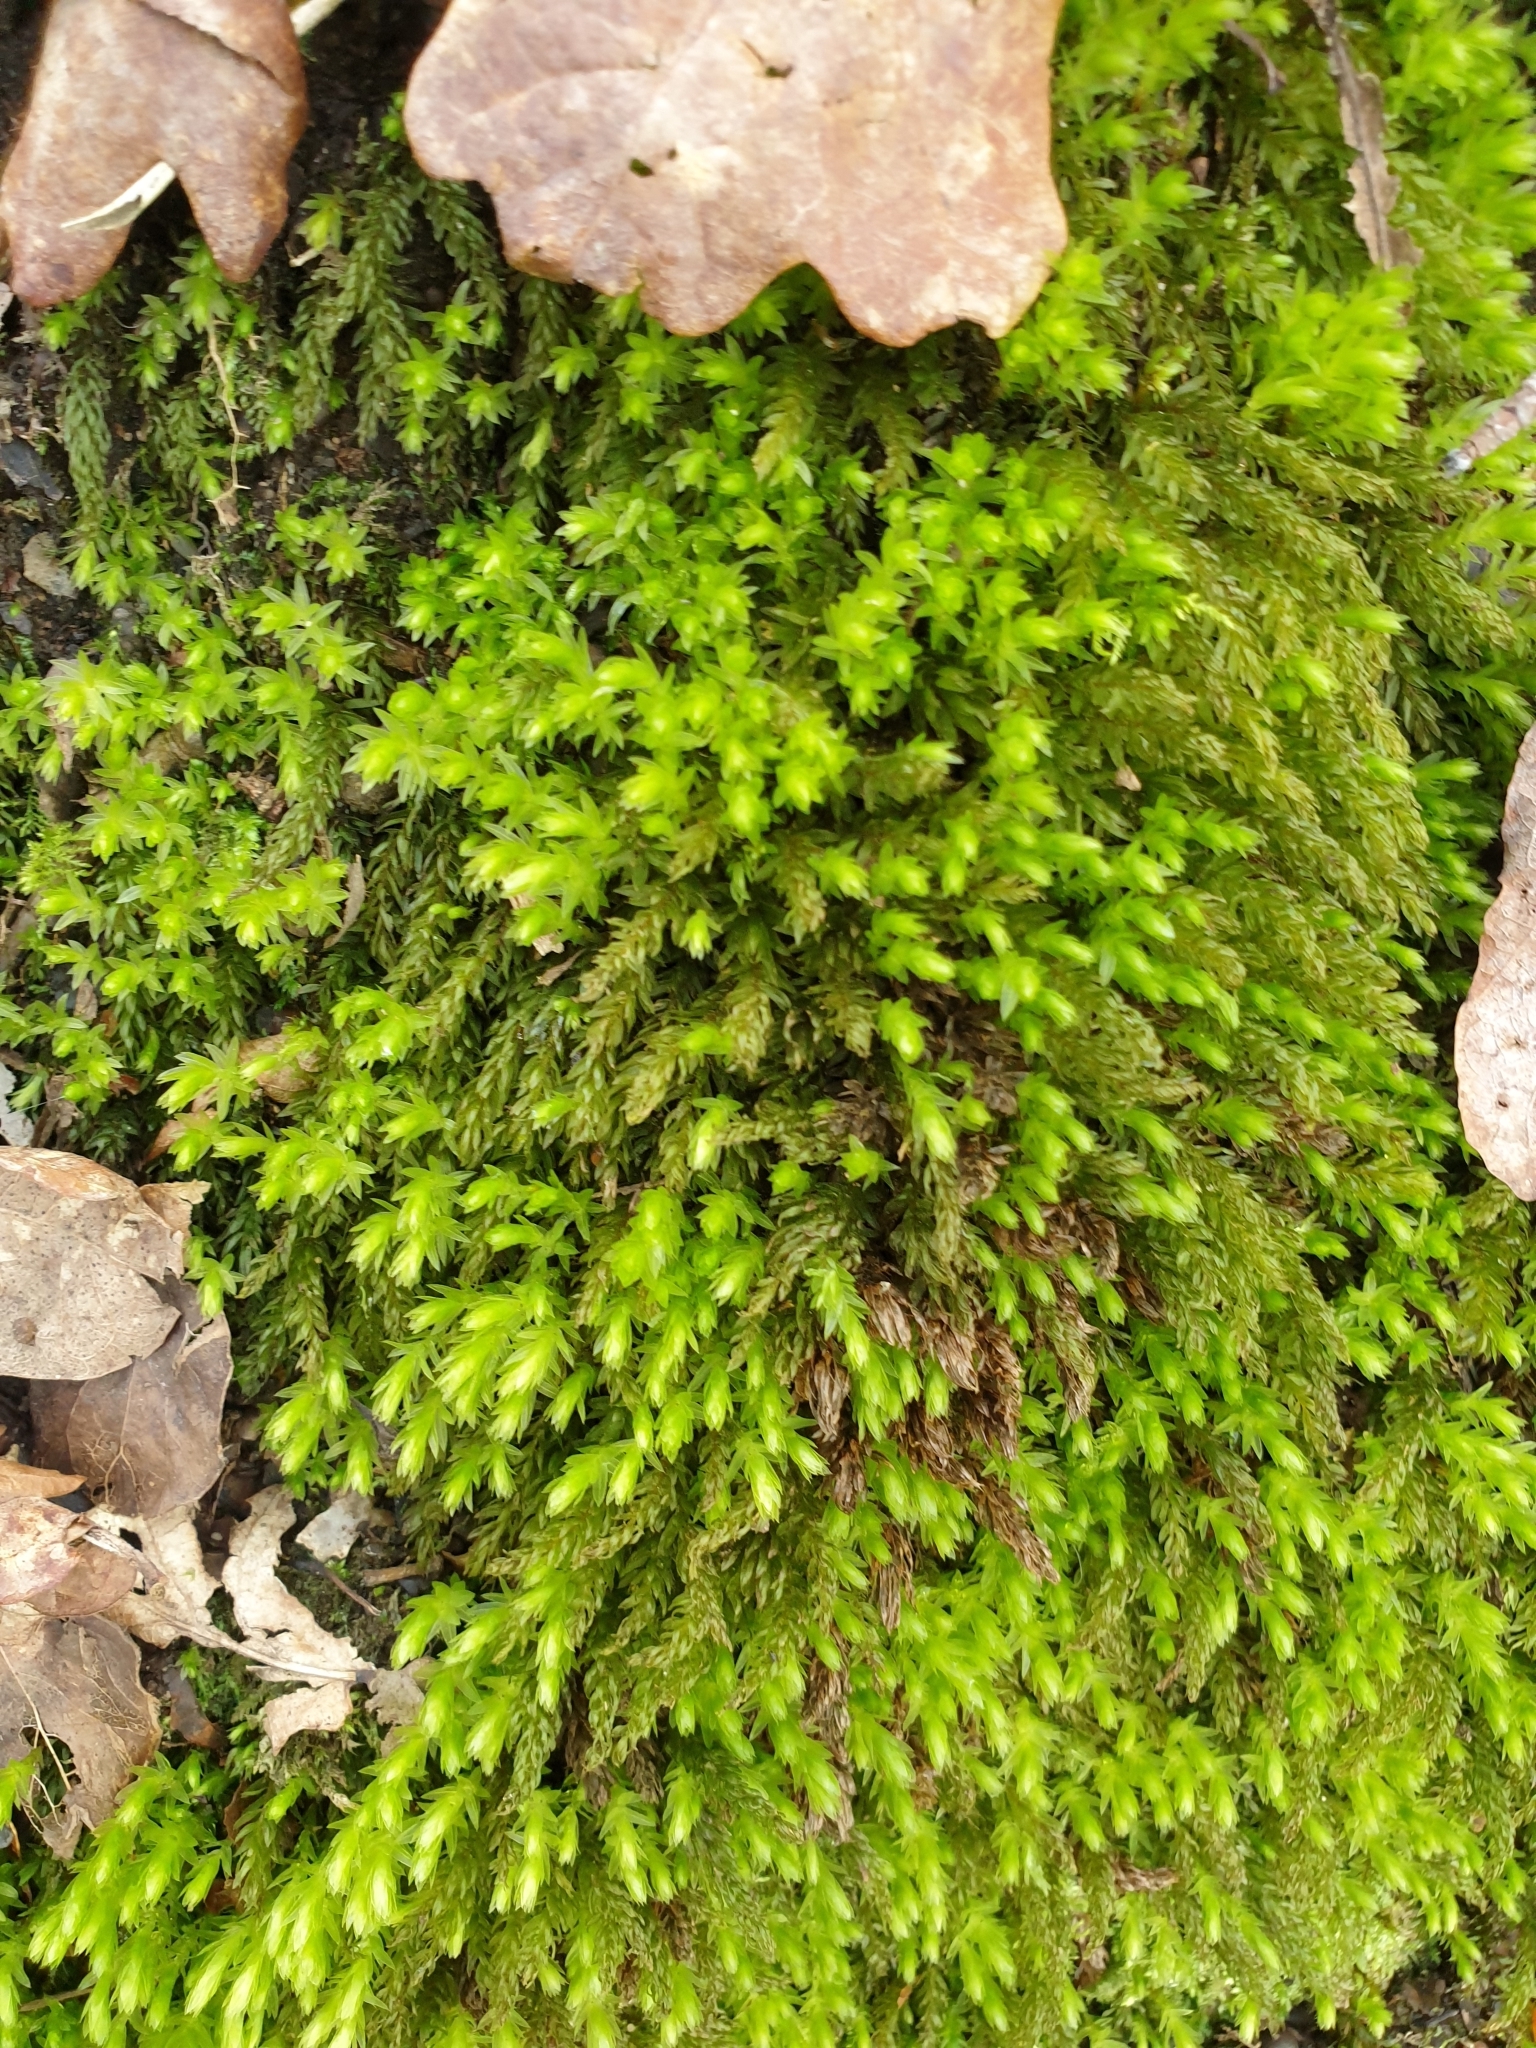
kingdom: Plantae
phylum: Bryophyta
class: Bryopsida
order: Bryales
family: Mniaceae
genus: Mnium
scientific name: Mnium hornum
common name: Swan's-neck leafy moss
